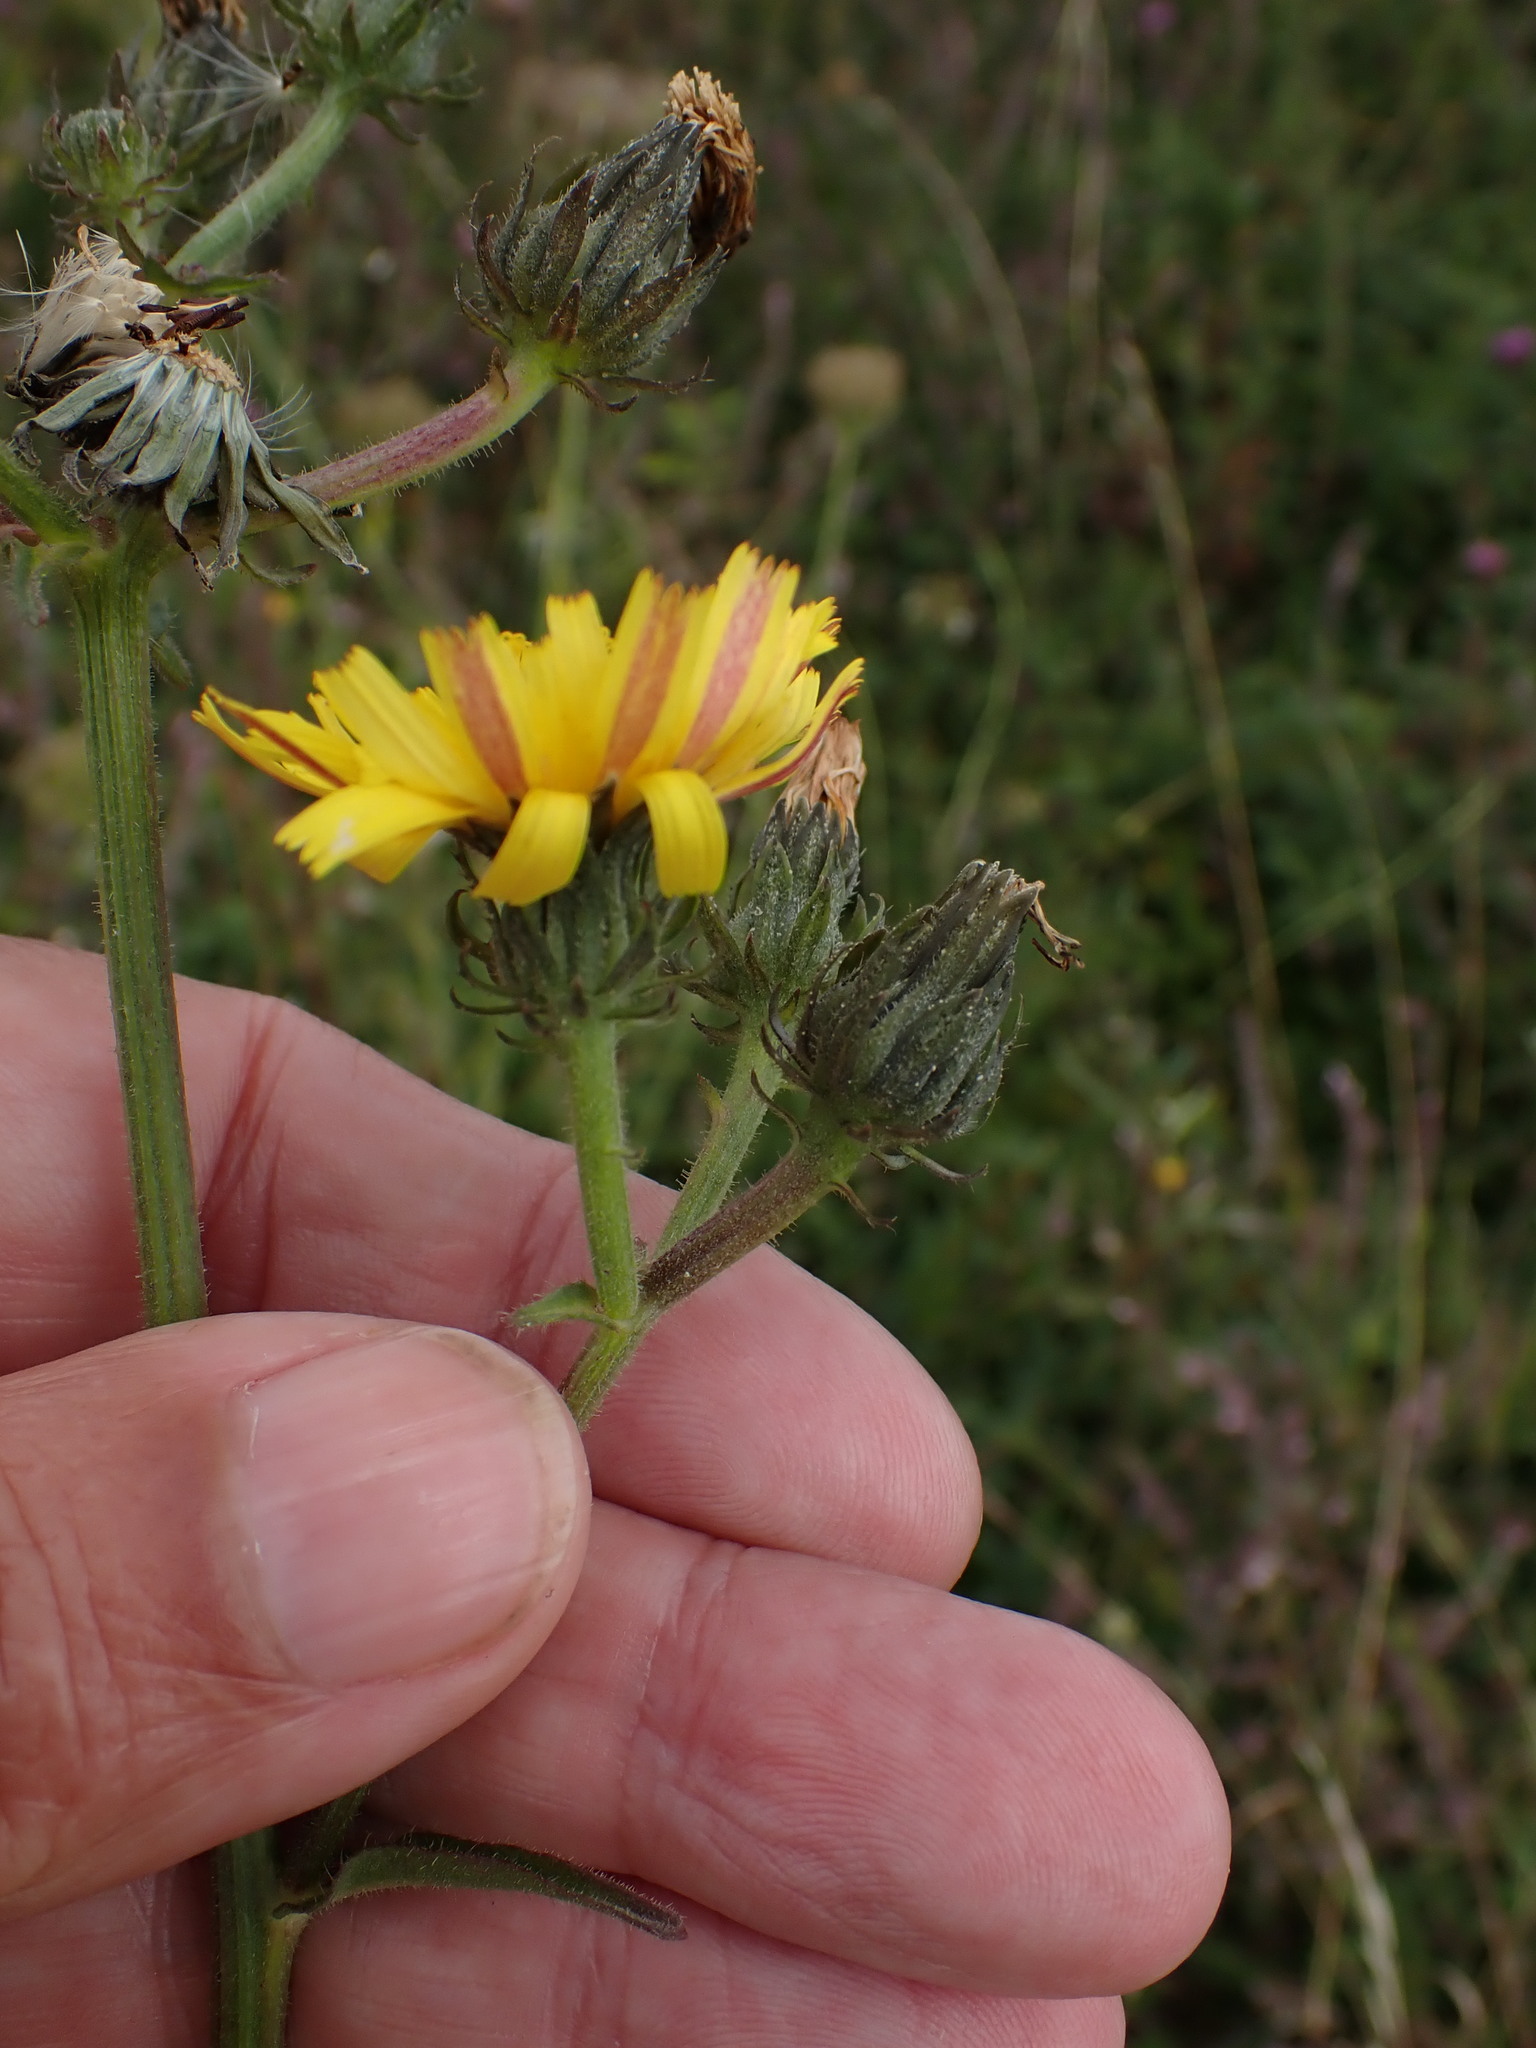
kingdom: Plantae
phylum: Tracheophyta
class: Magnoliopsida
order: Asterales
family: Asteraceae
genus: Picris
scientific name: Picris hieracioides
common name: Hawkweed oxtongue
